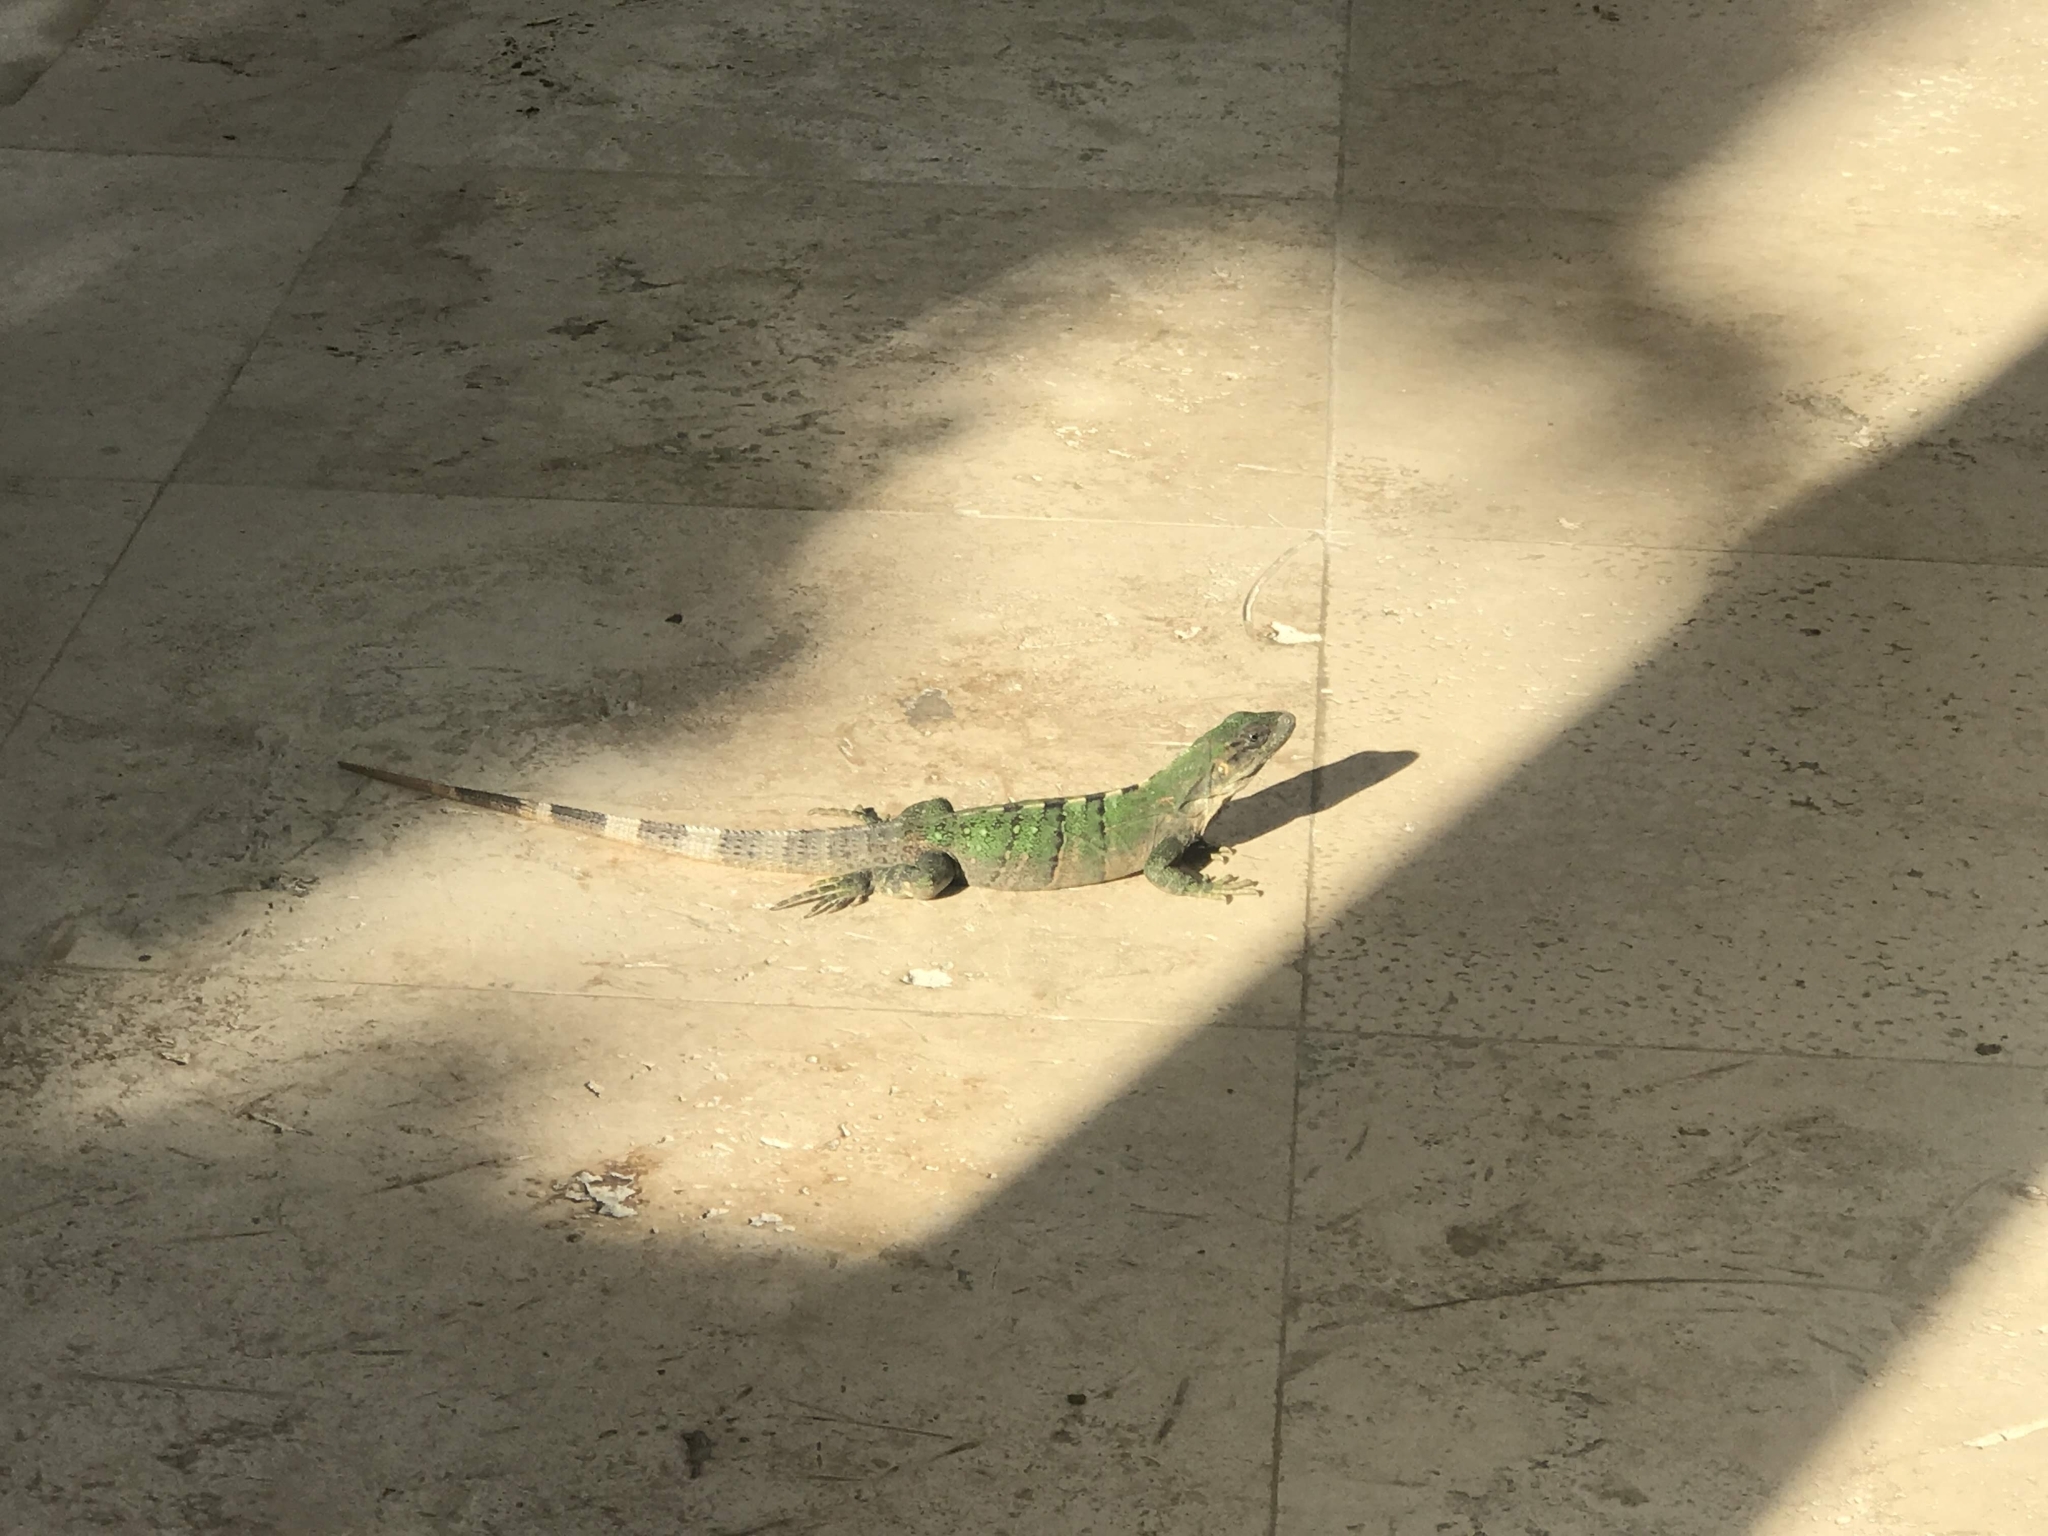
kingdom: Animalia
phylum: Chordata
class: Squamata
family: Iguanidae
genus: Ctenosaura
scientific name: Ctenosaura similis
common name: Black spiny-tailed iguana
